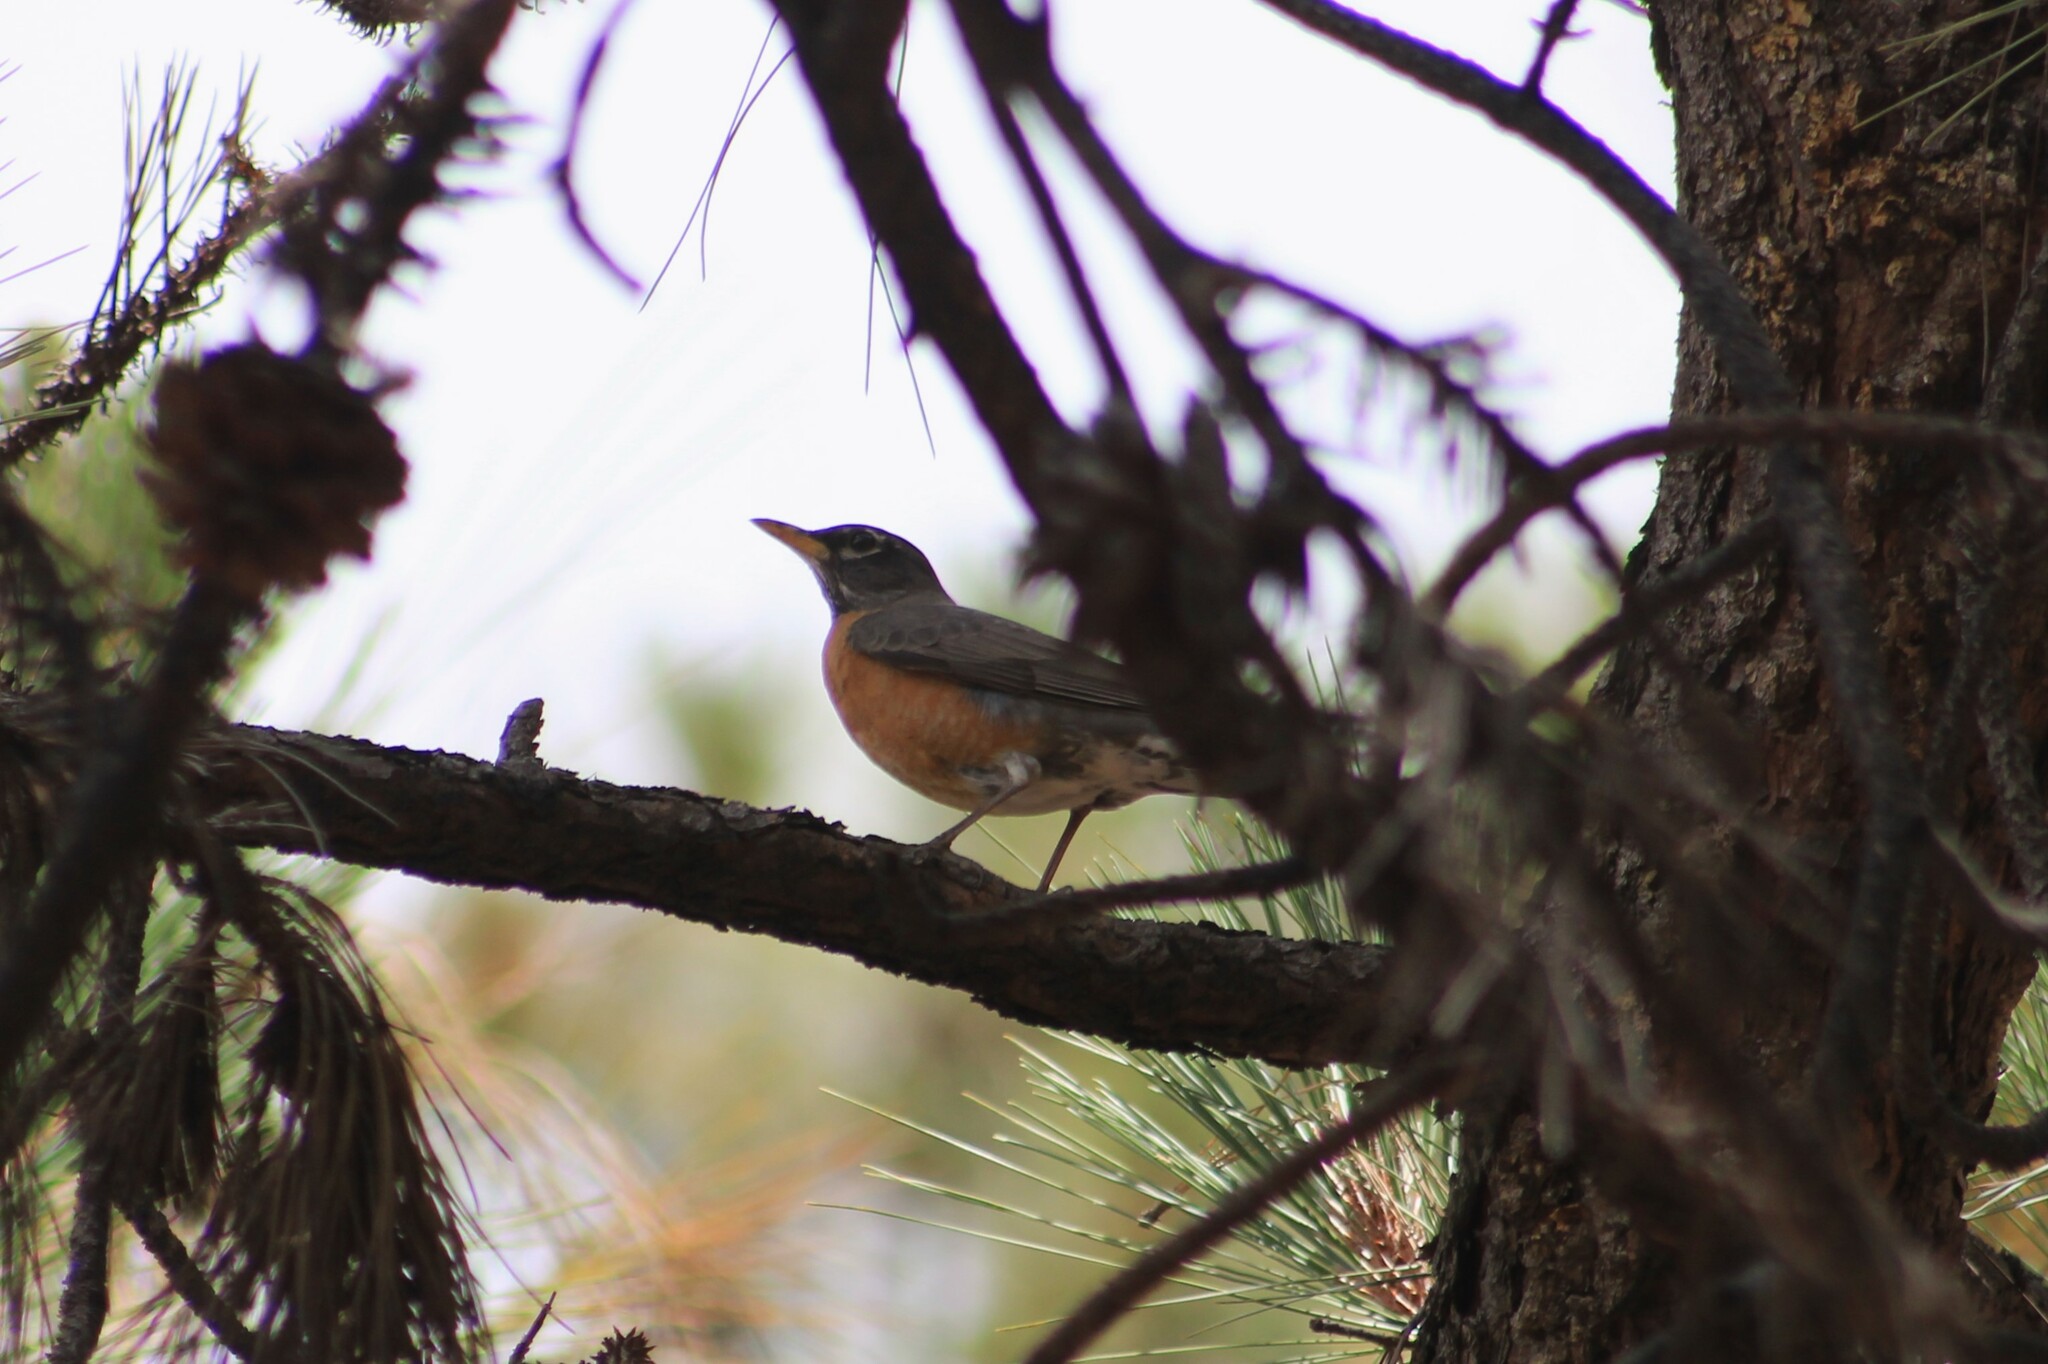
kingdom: Animalia
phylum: Chordata
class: Aves
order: Passeriformes
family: Turdidae
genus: Turdus
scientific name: Turdus migratorius
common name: American robin
